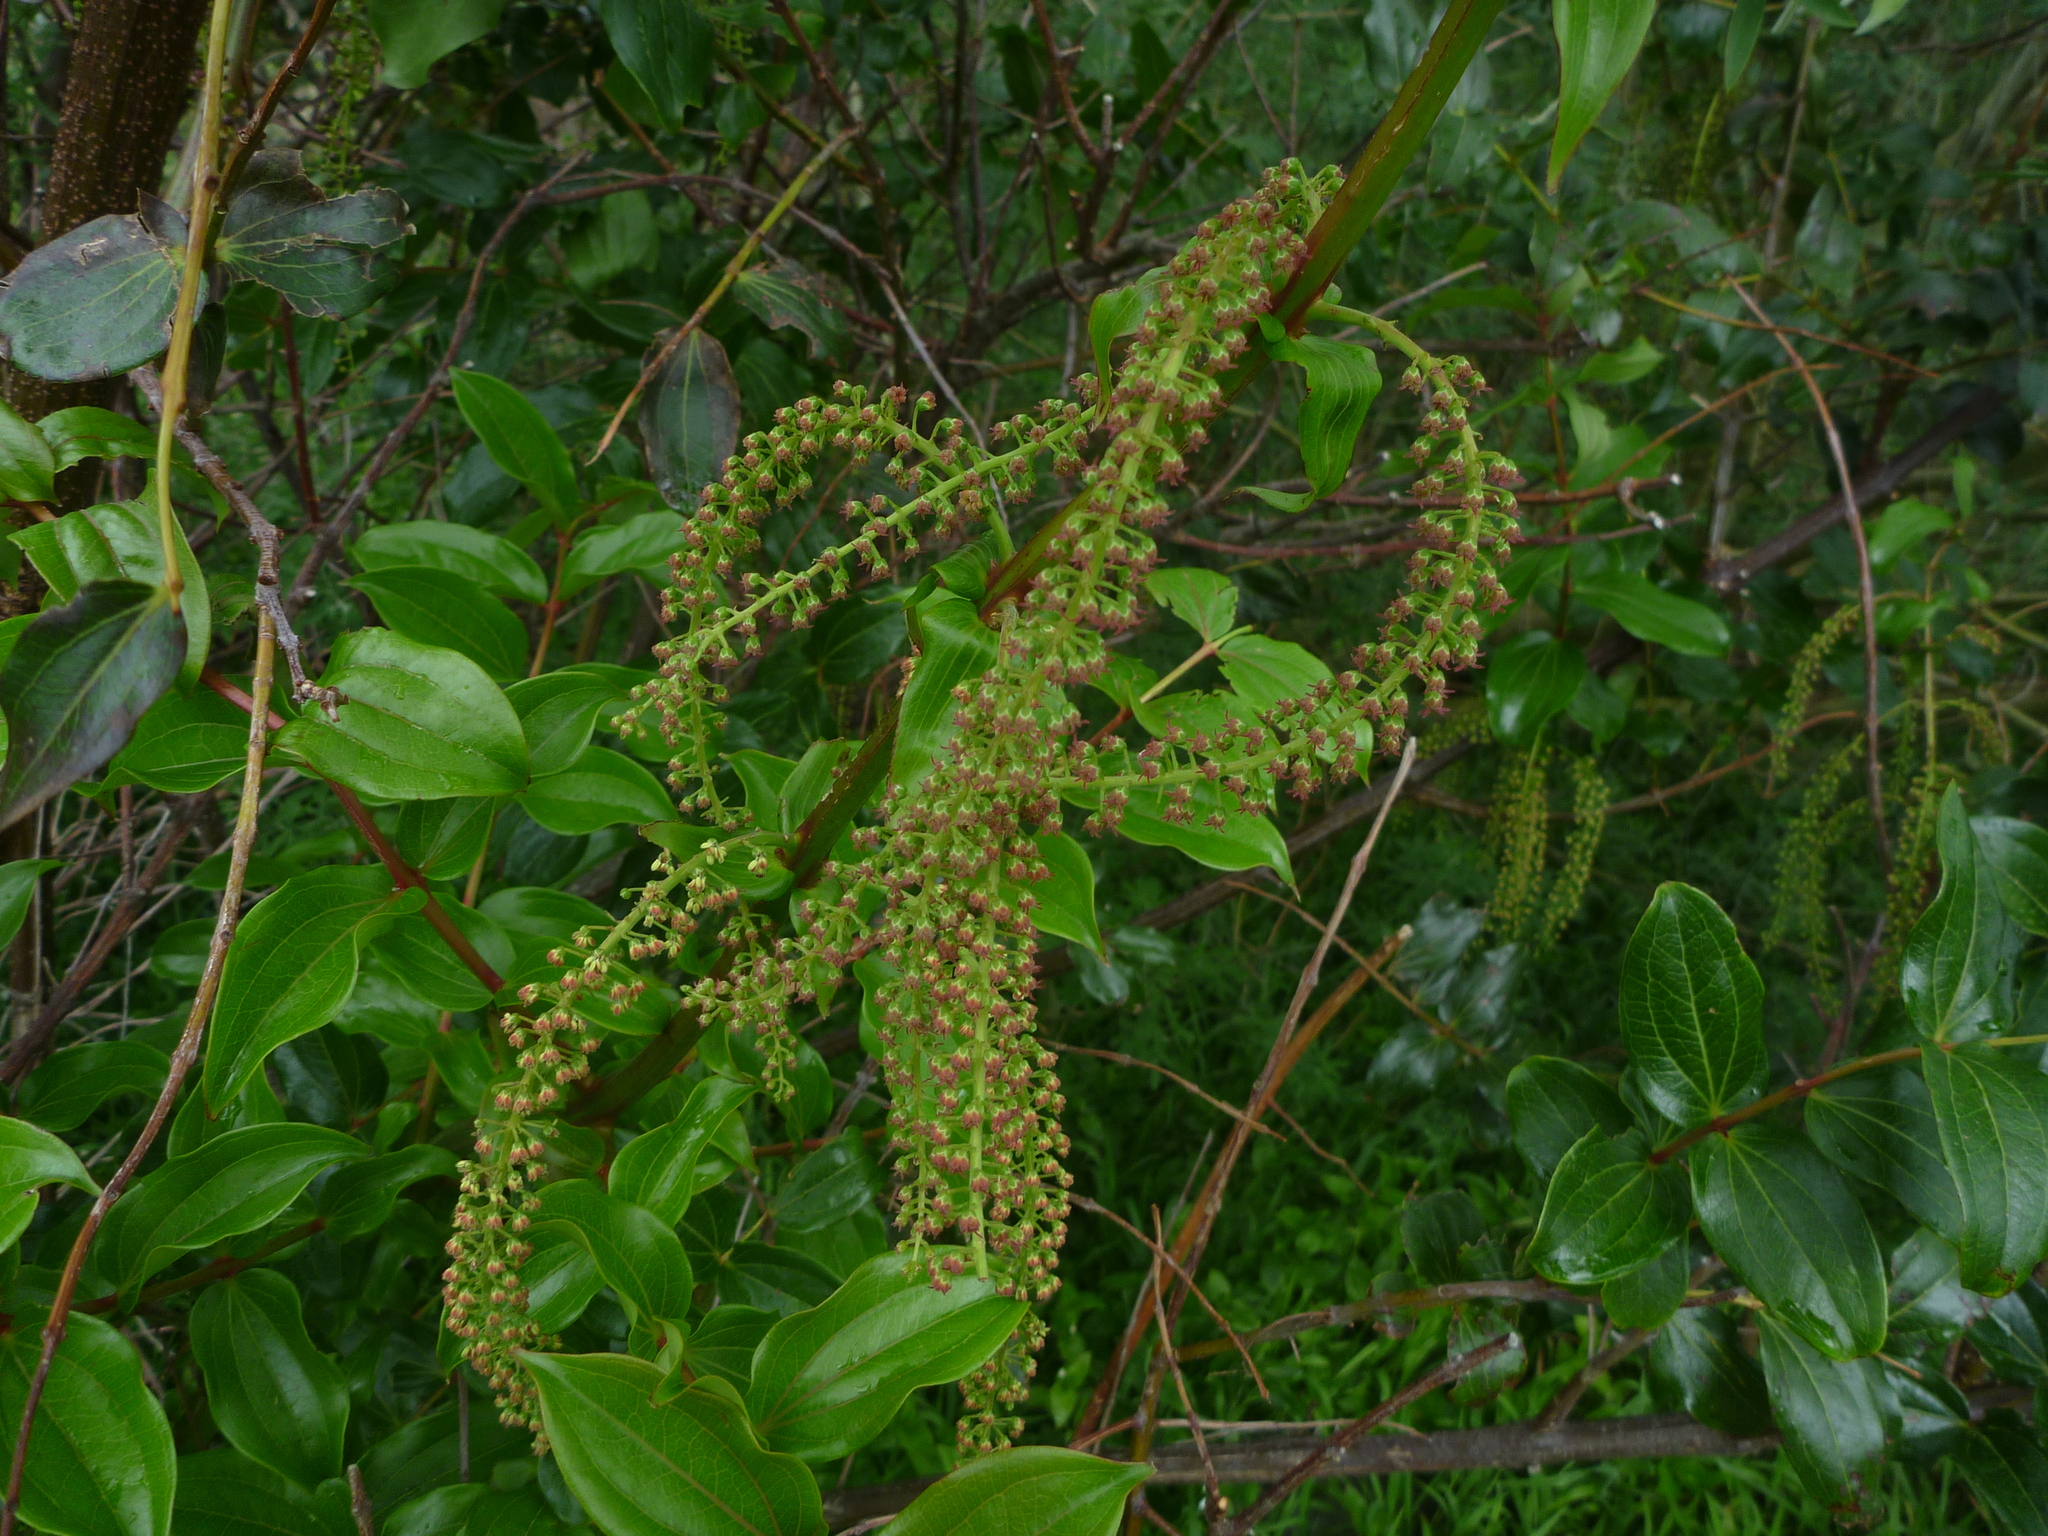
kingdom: Plantae
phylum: Tracheophyta
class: Magnoliopsida
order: Cucurbitales
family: Coriariaceae
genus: Coriaria
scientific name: Coriaria arborea
